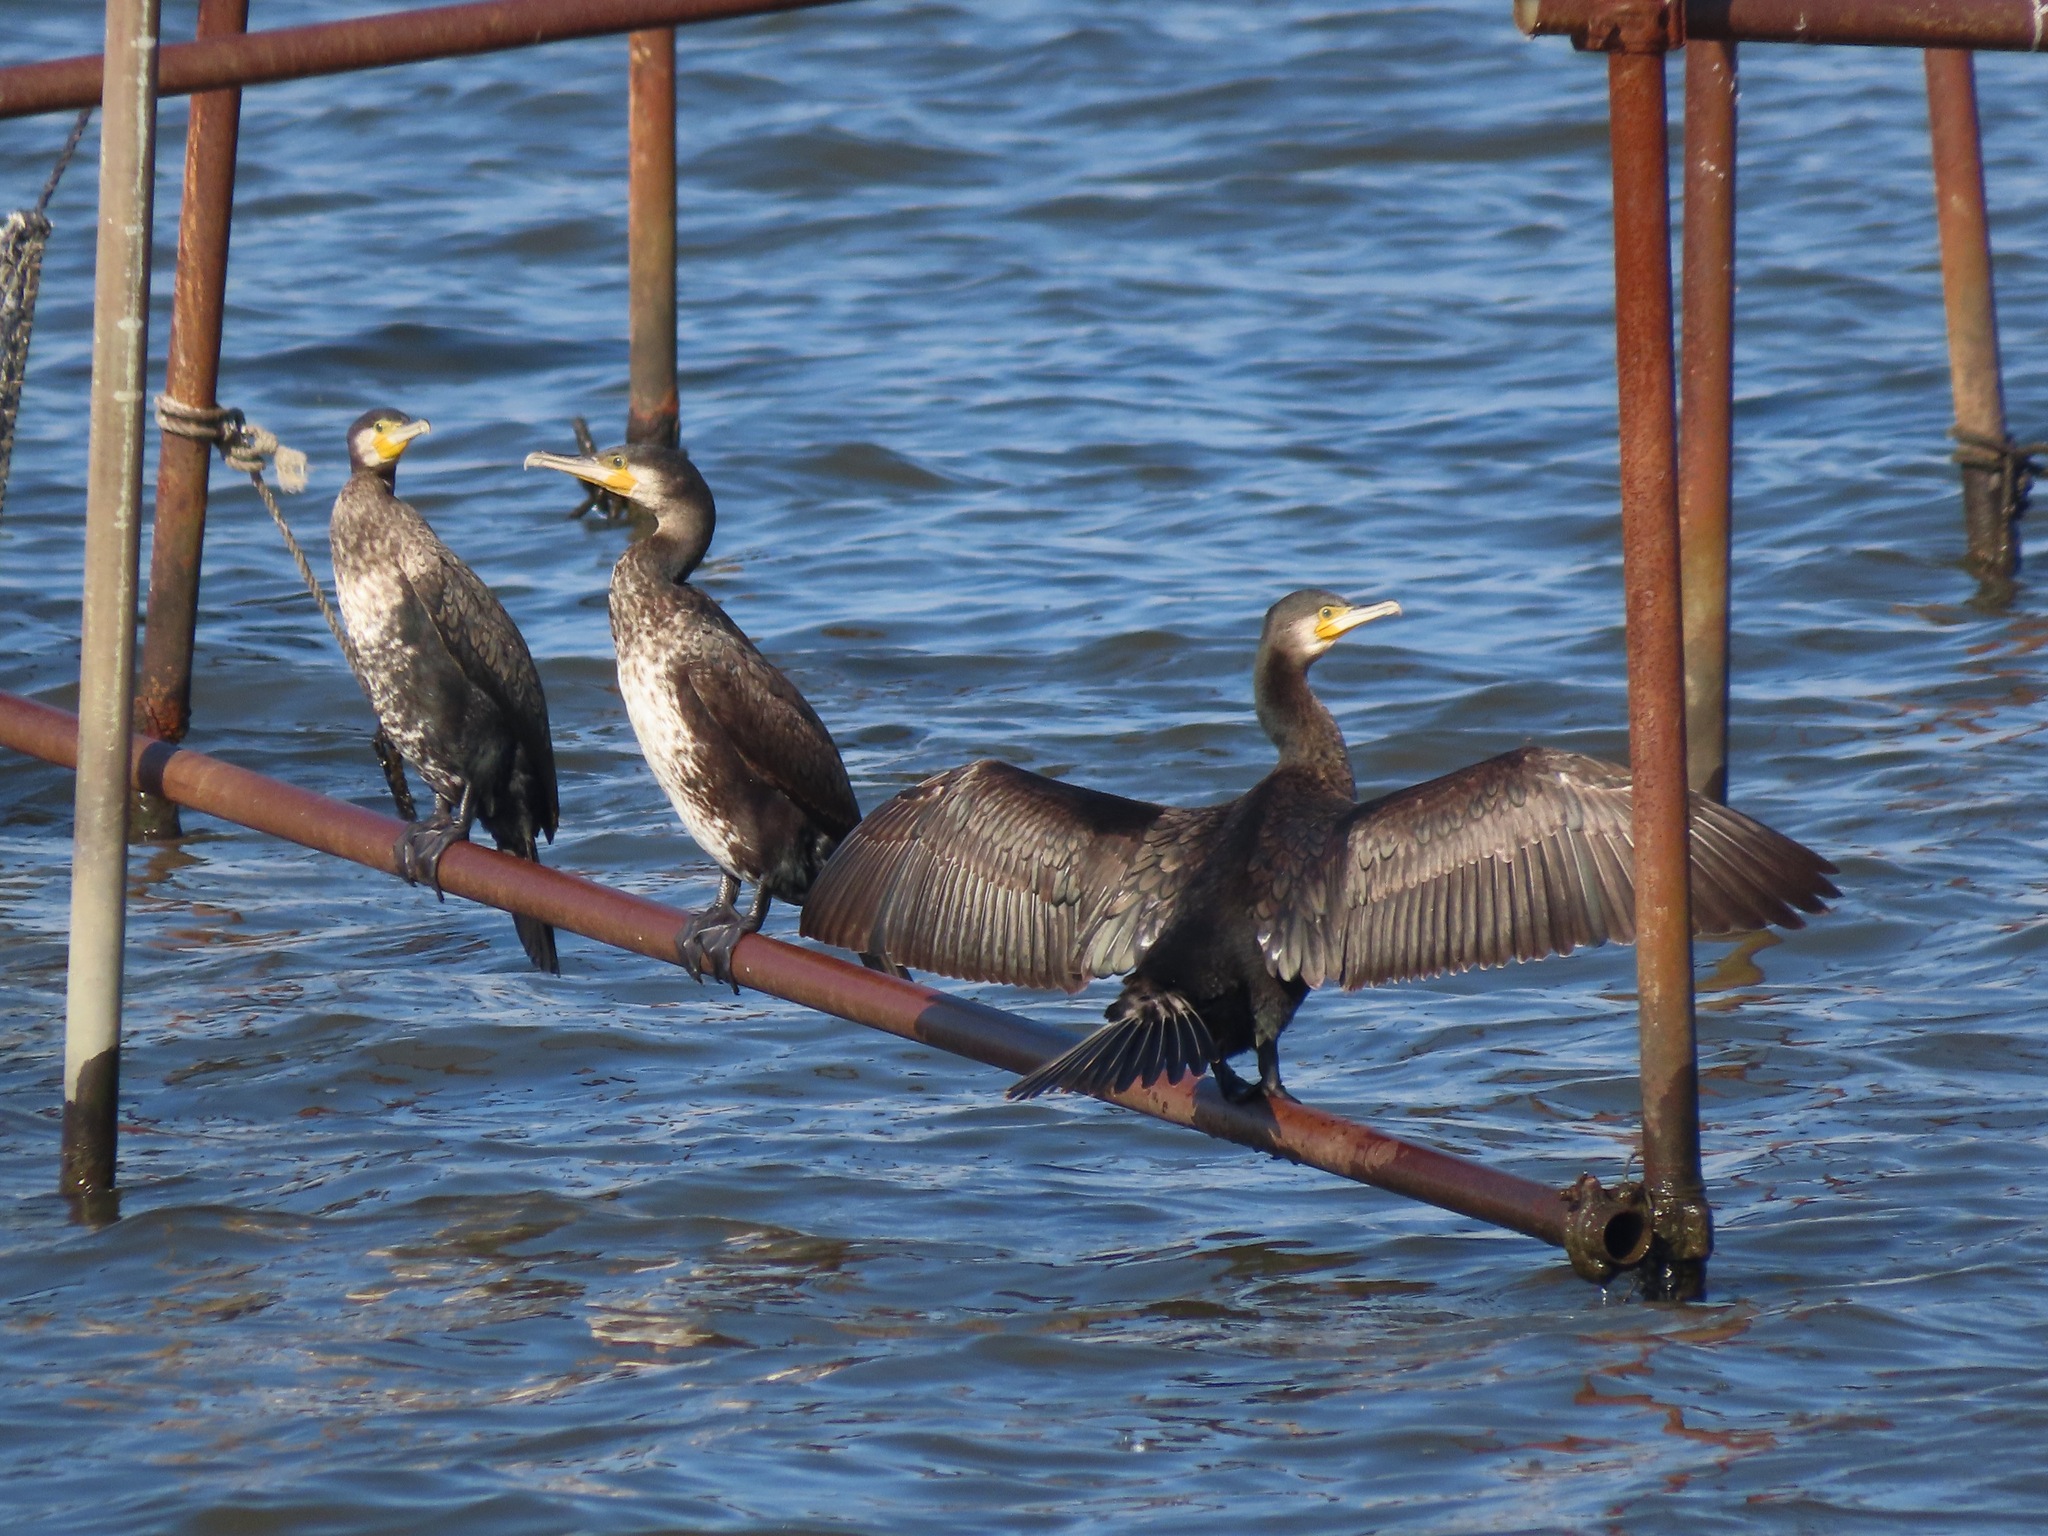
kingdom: Animalia
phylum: Chordata
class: Aves
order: Suliformes
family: Phalacrocoracidae
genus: Phalacrocorax
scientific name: Phalacrocorax carbo
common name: Great cormorant
